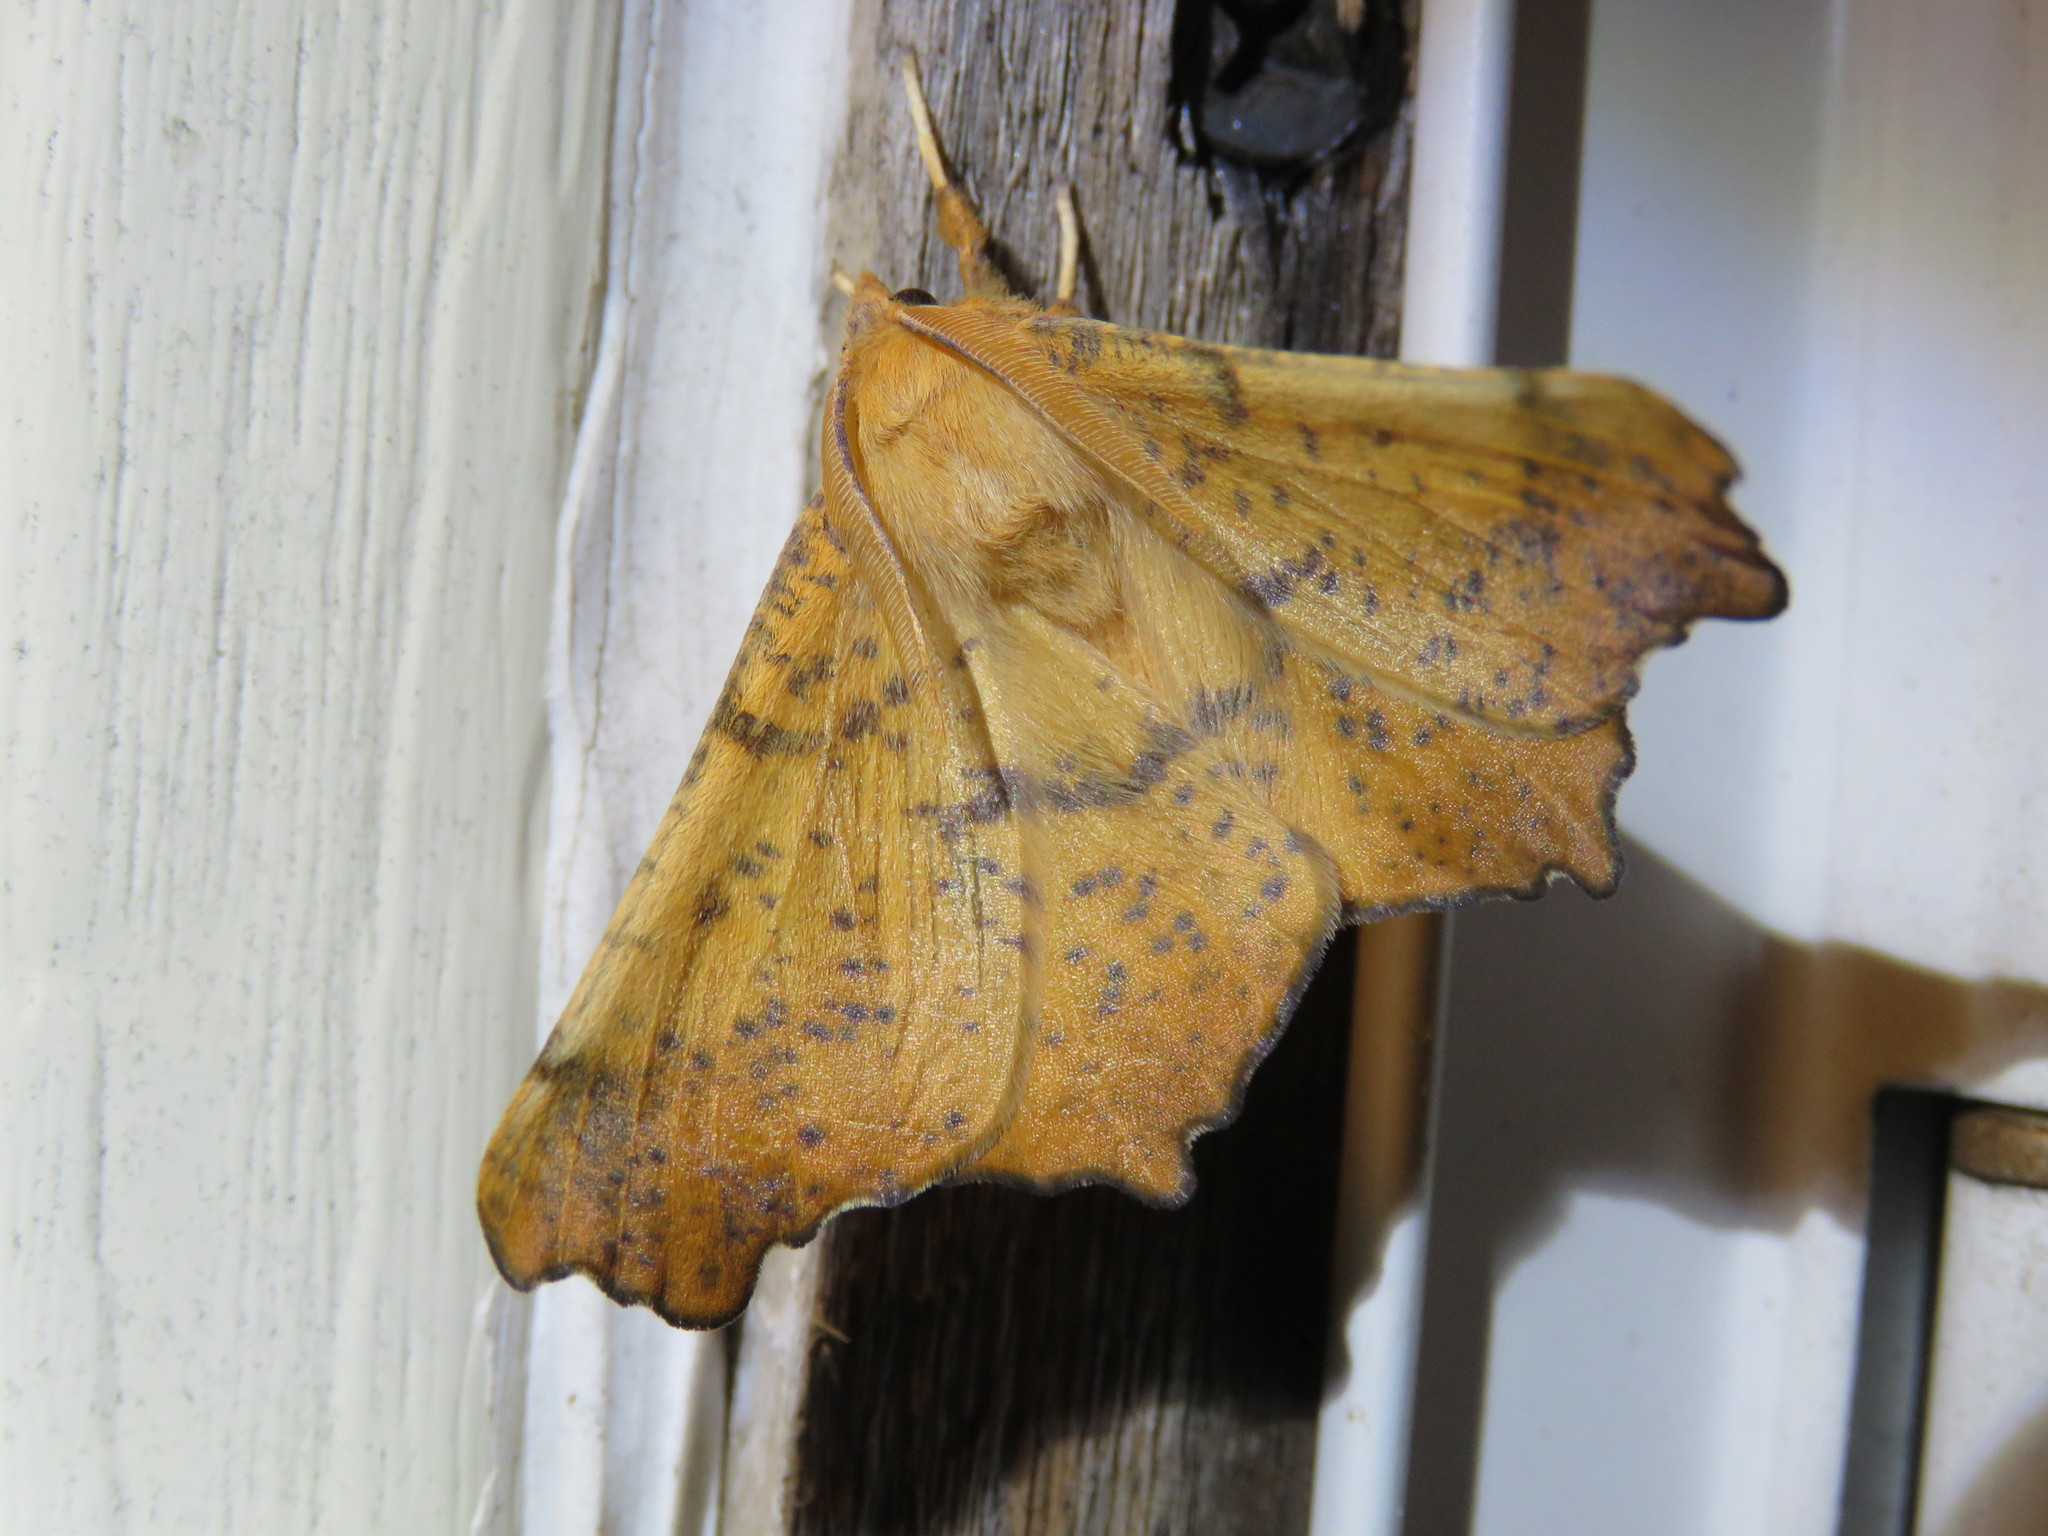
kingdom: Animalia
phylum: Arthropoda
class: Insecta
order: Lepidoptera
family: Geometridae
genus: Ennomos
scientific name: Ennomos magnaria
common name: Maple spanworm
